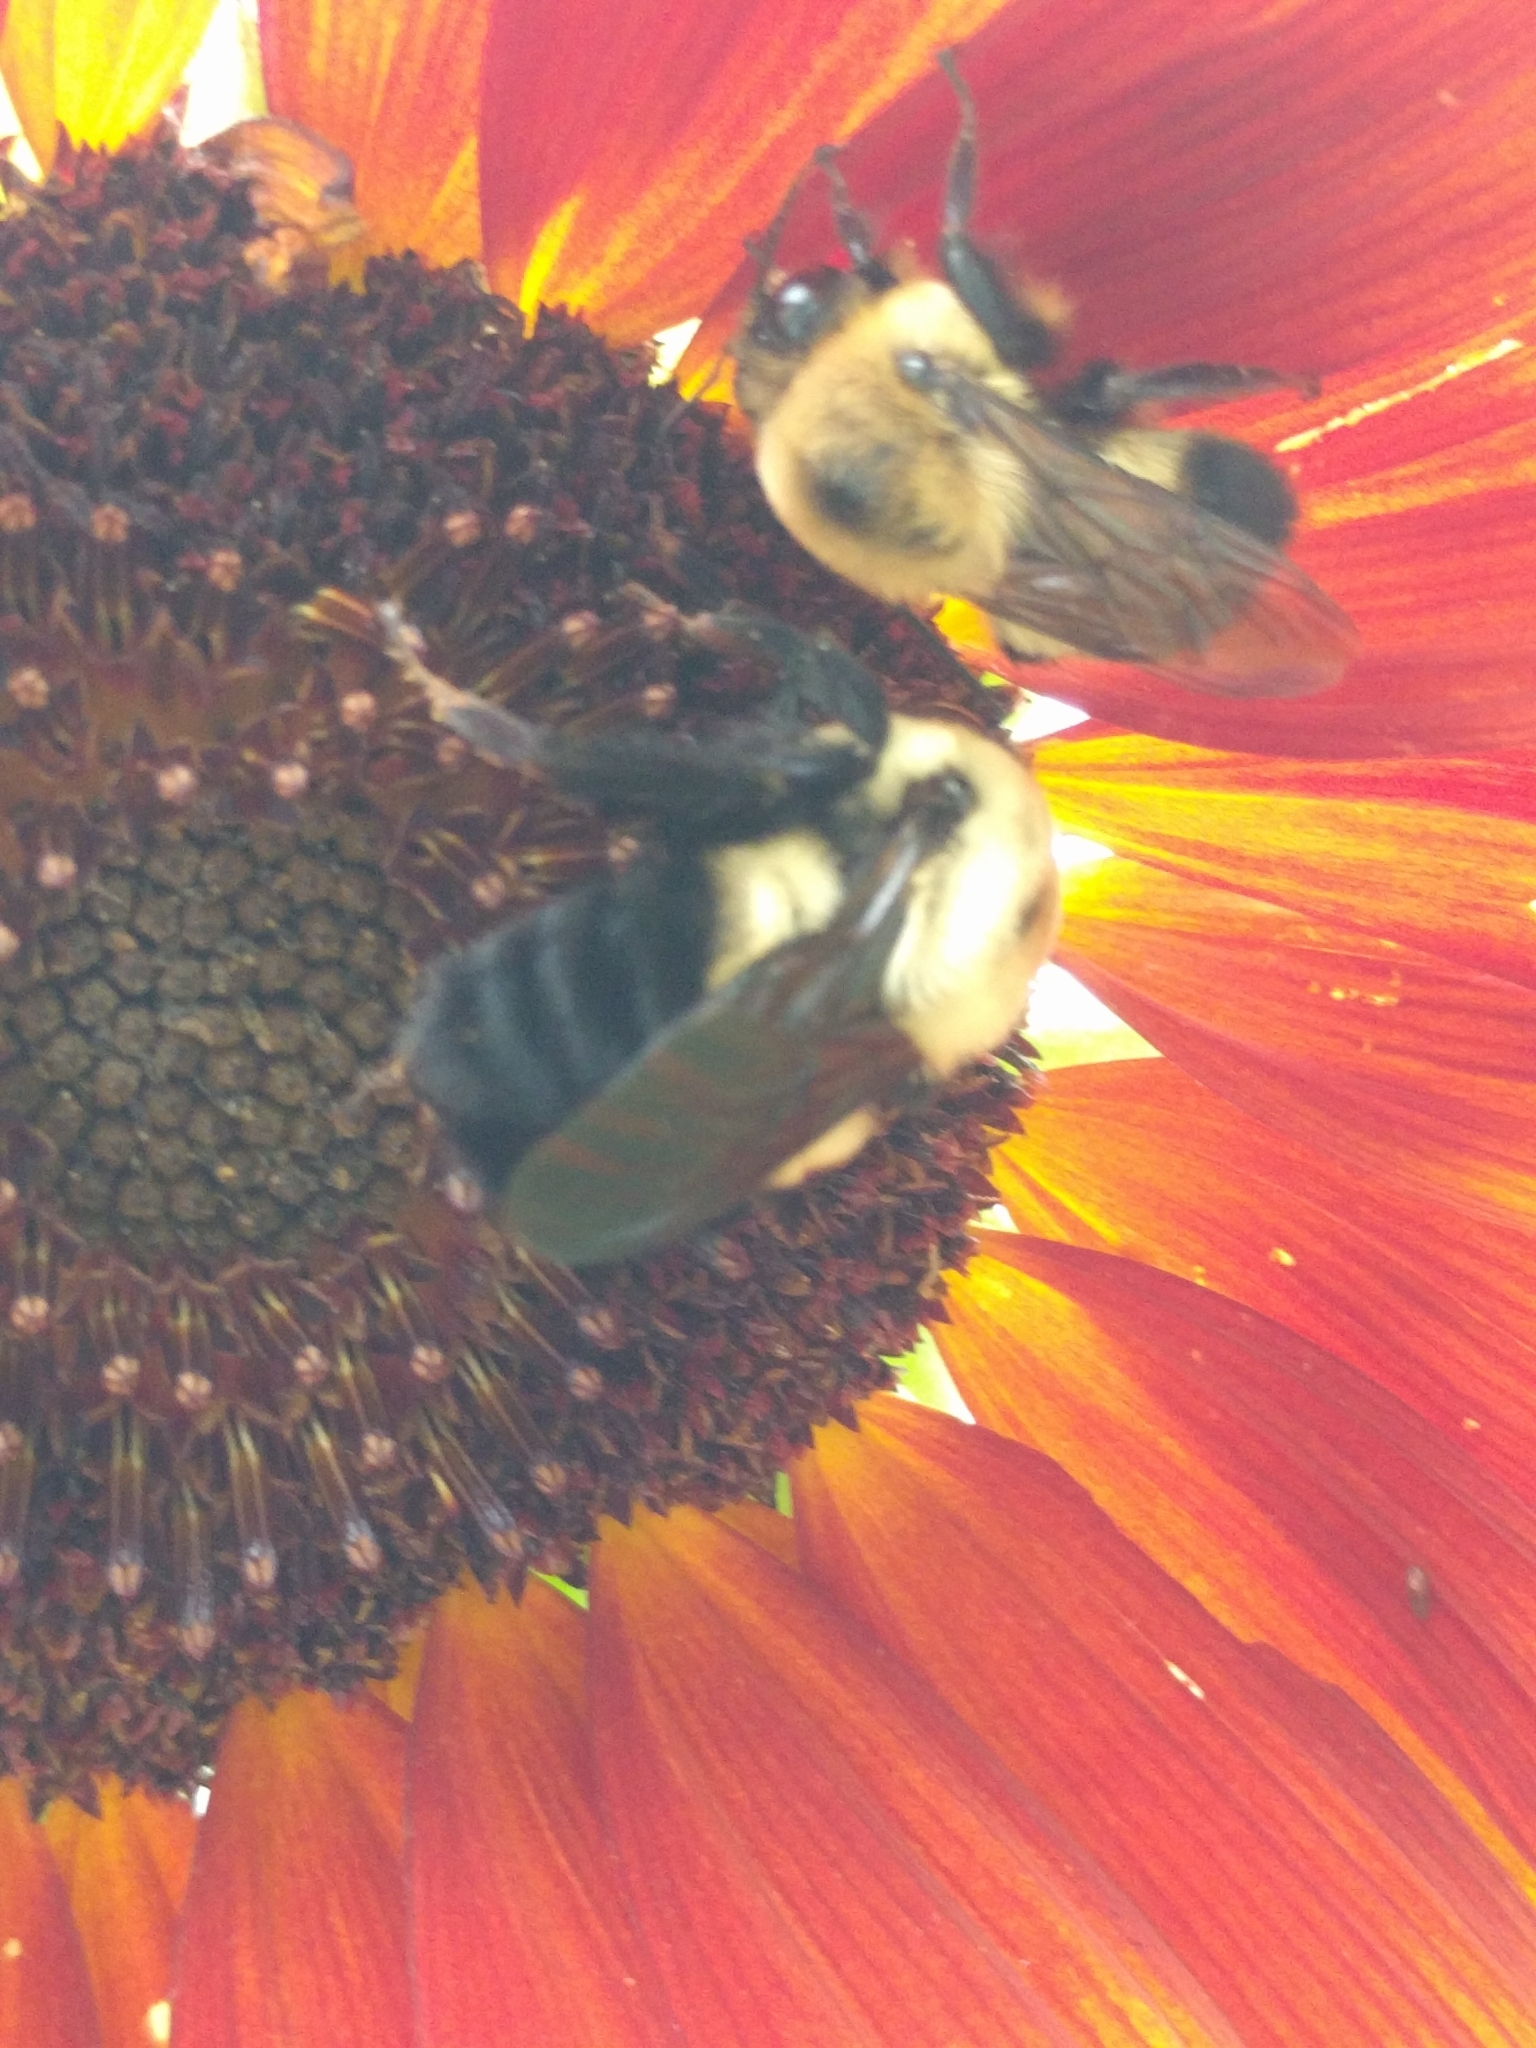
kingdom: Animalia
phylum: Arthropoda
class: Insecta
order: Hymenoptera
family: Apidae
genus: Bombus
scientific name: Bombus griseocollis
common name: Brown-belted bumble bee
